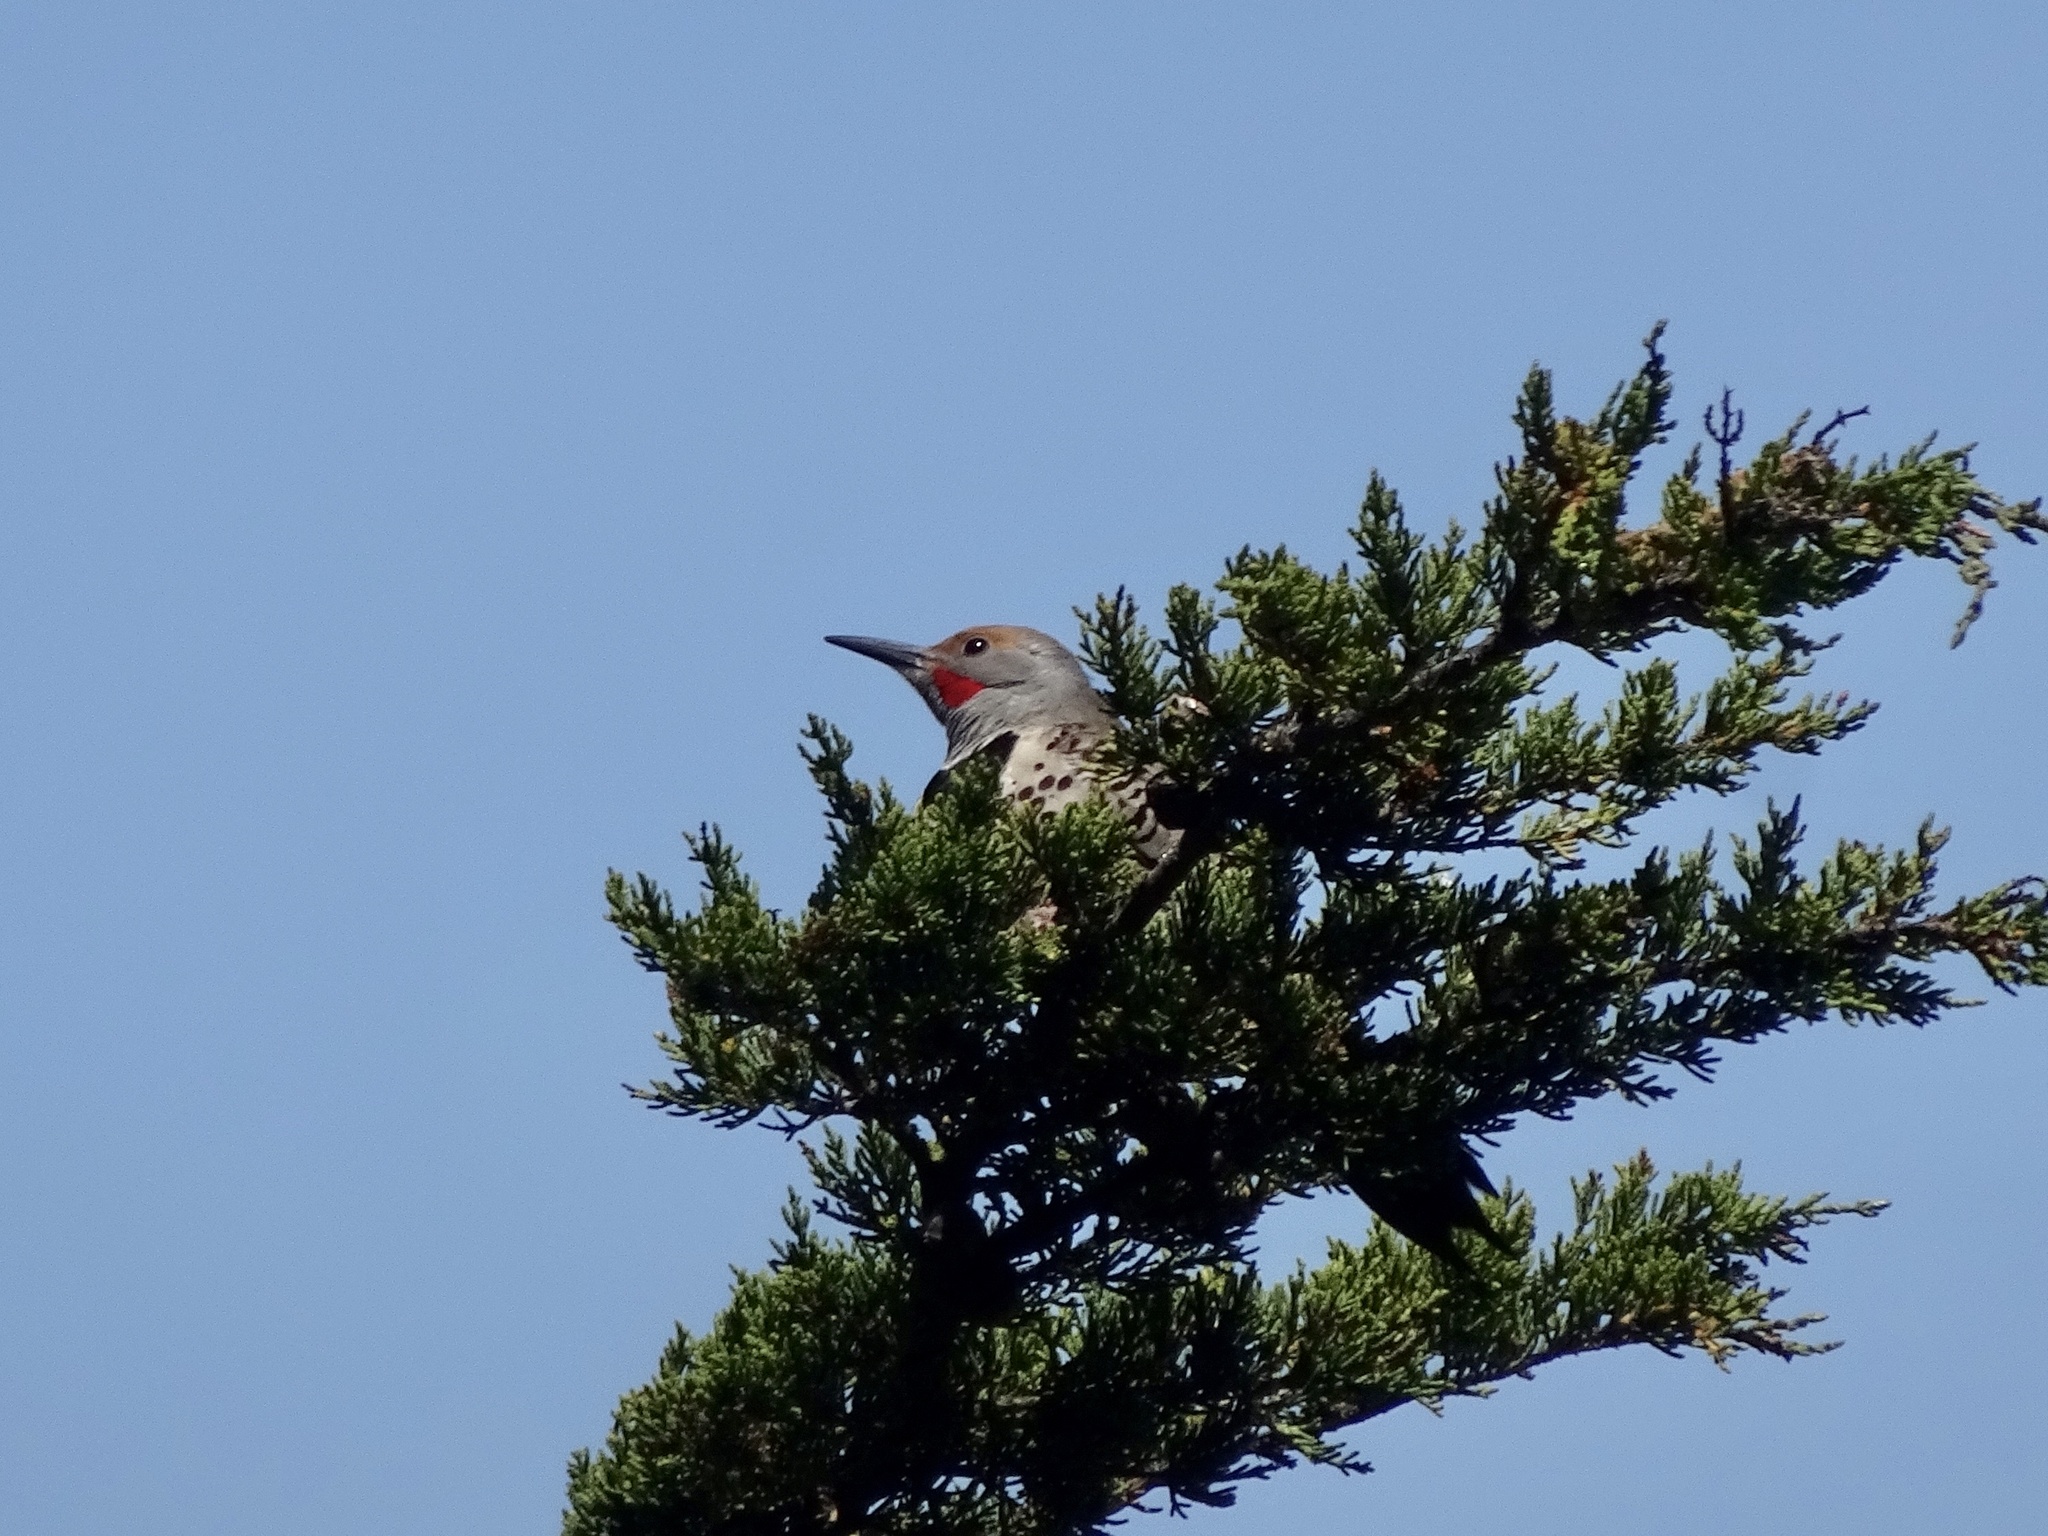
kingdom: Animalia
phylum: Chordata
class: Aves
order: Piciformes
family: Picidae
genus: Colaptes
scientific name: Colaptes auratus
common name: Northern flicker
